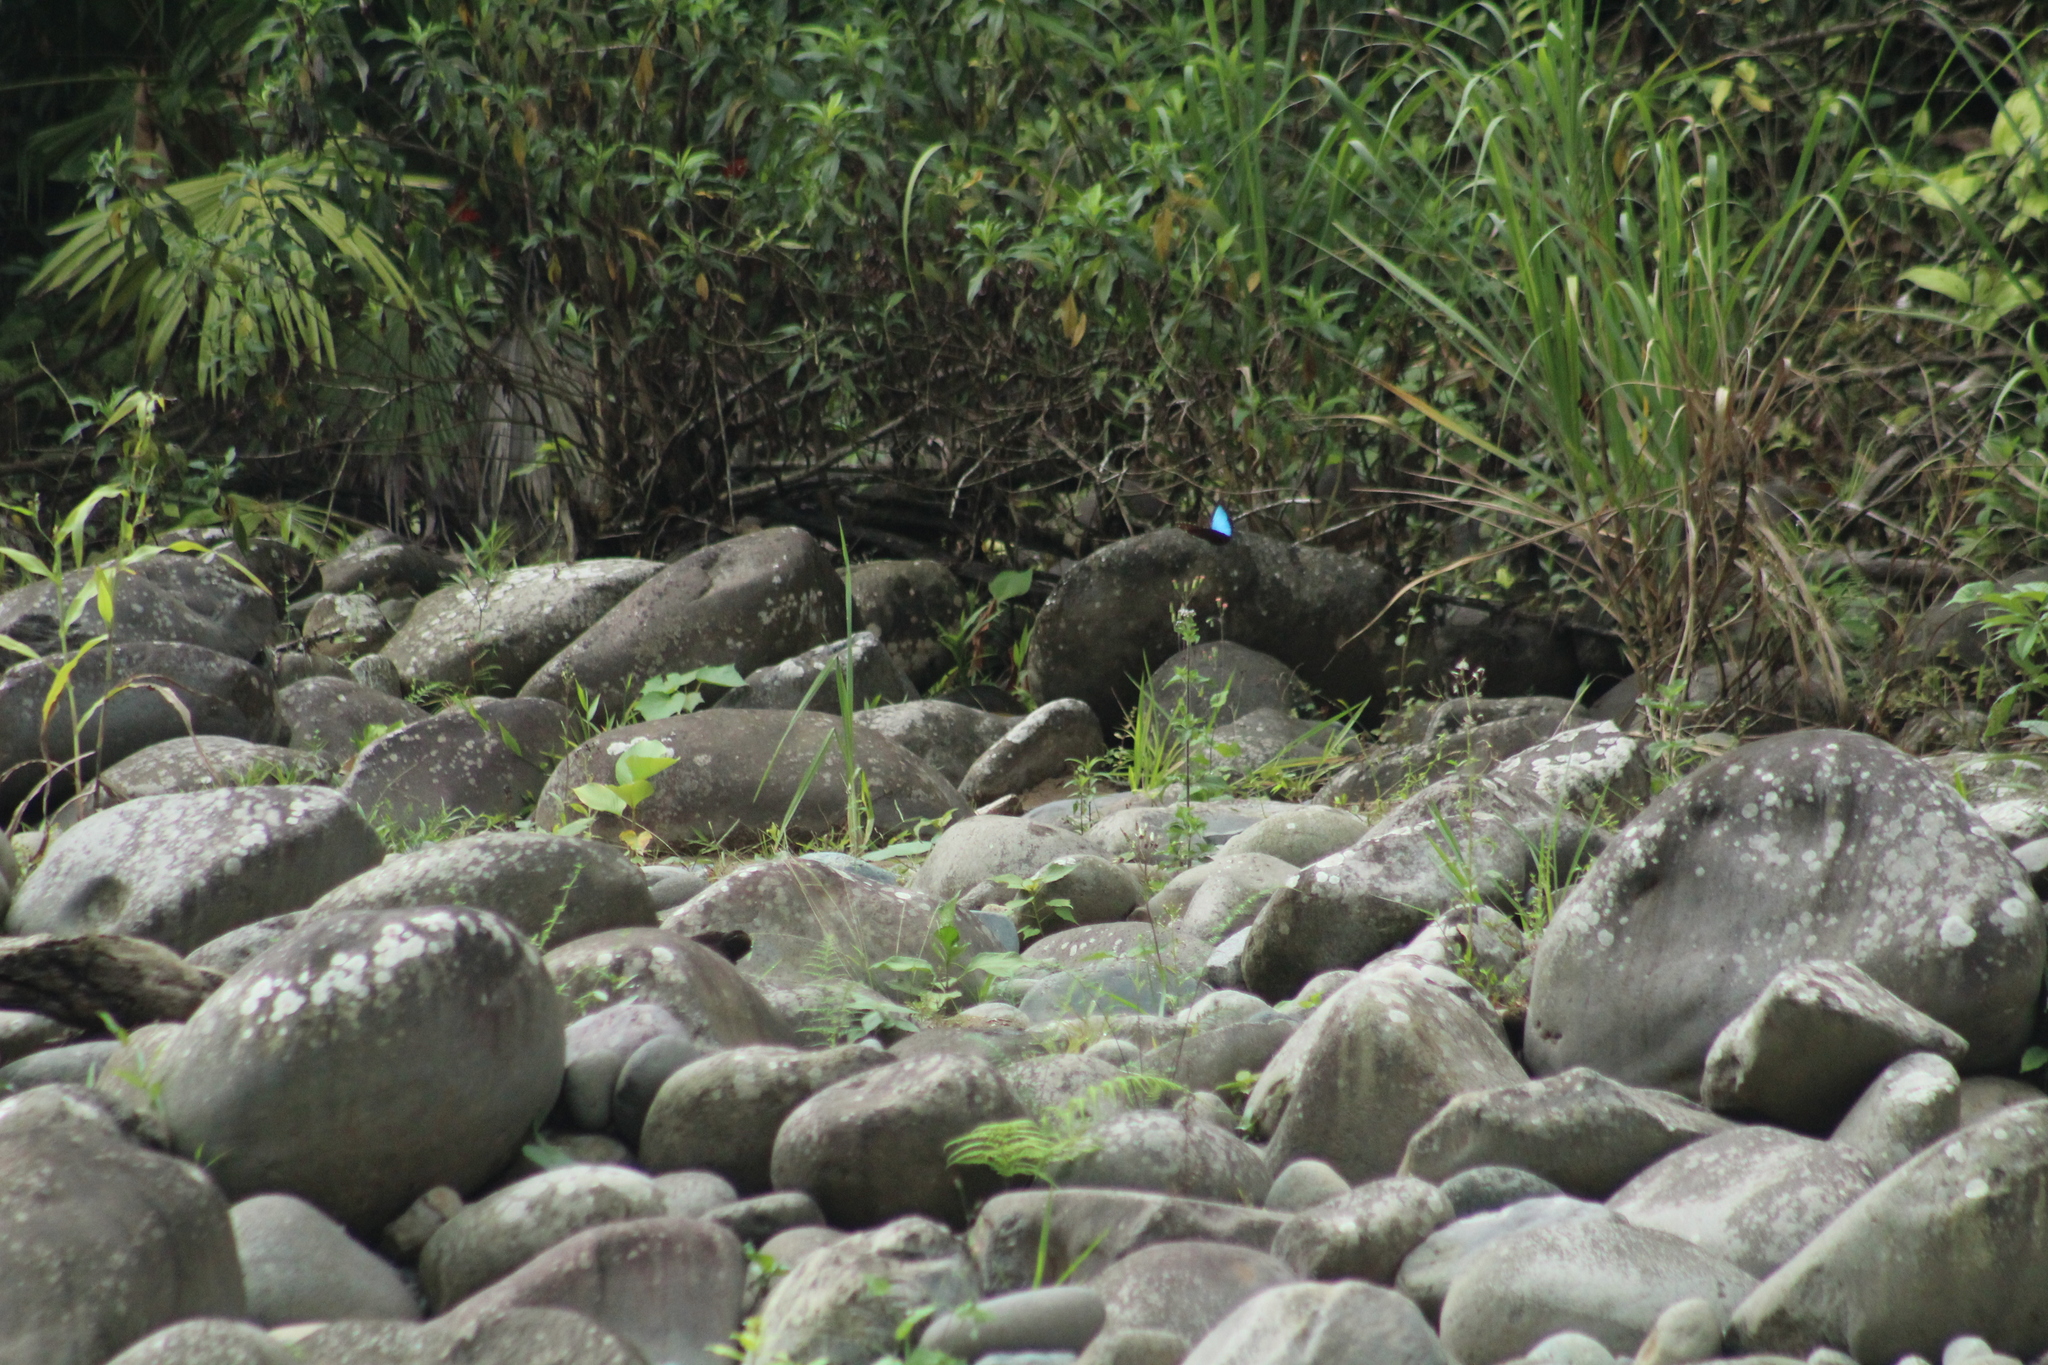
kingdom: Animalia
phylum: Arthropoda
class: Insecta
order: Lepidoptera
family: Nymphalidae
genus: Morpho
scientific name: Morpho helenor
